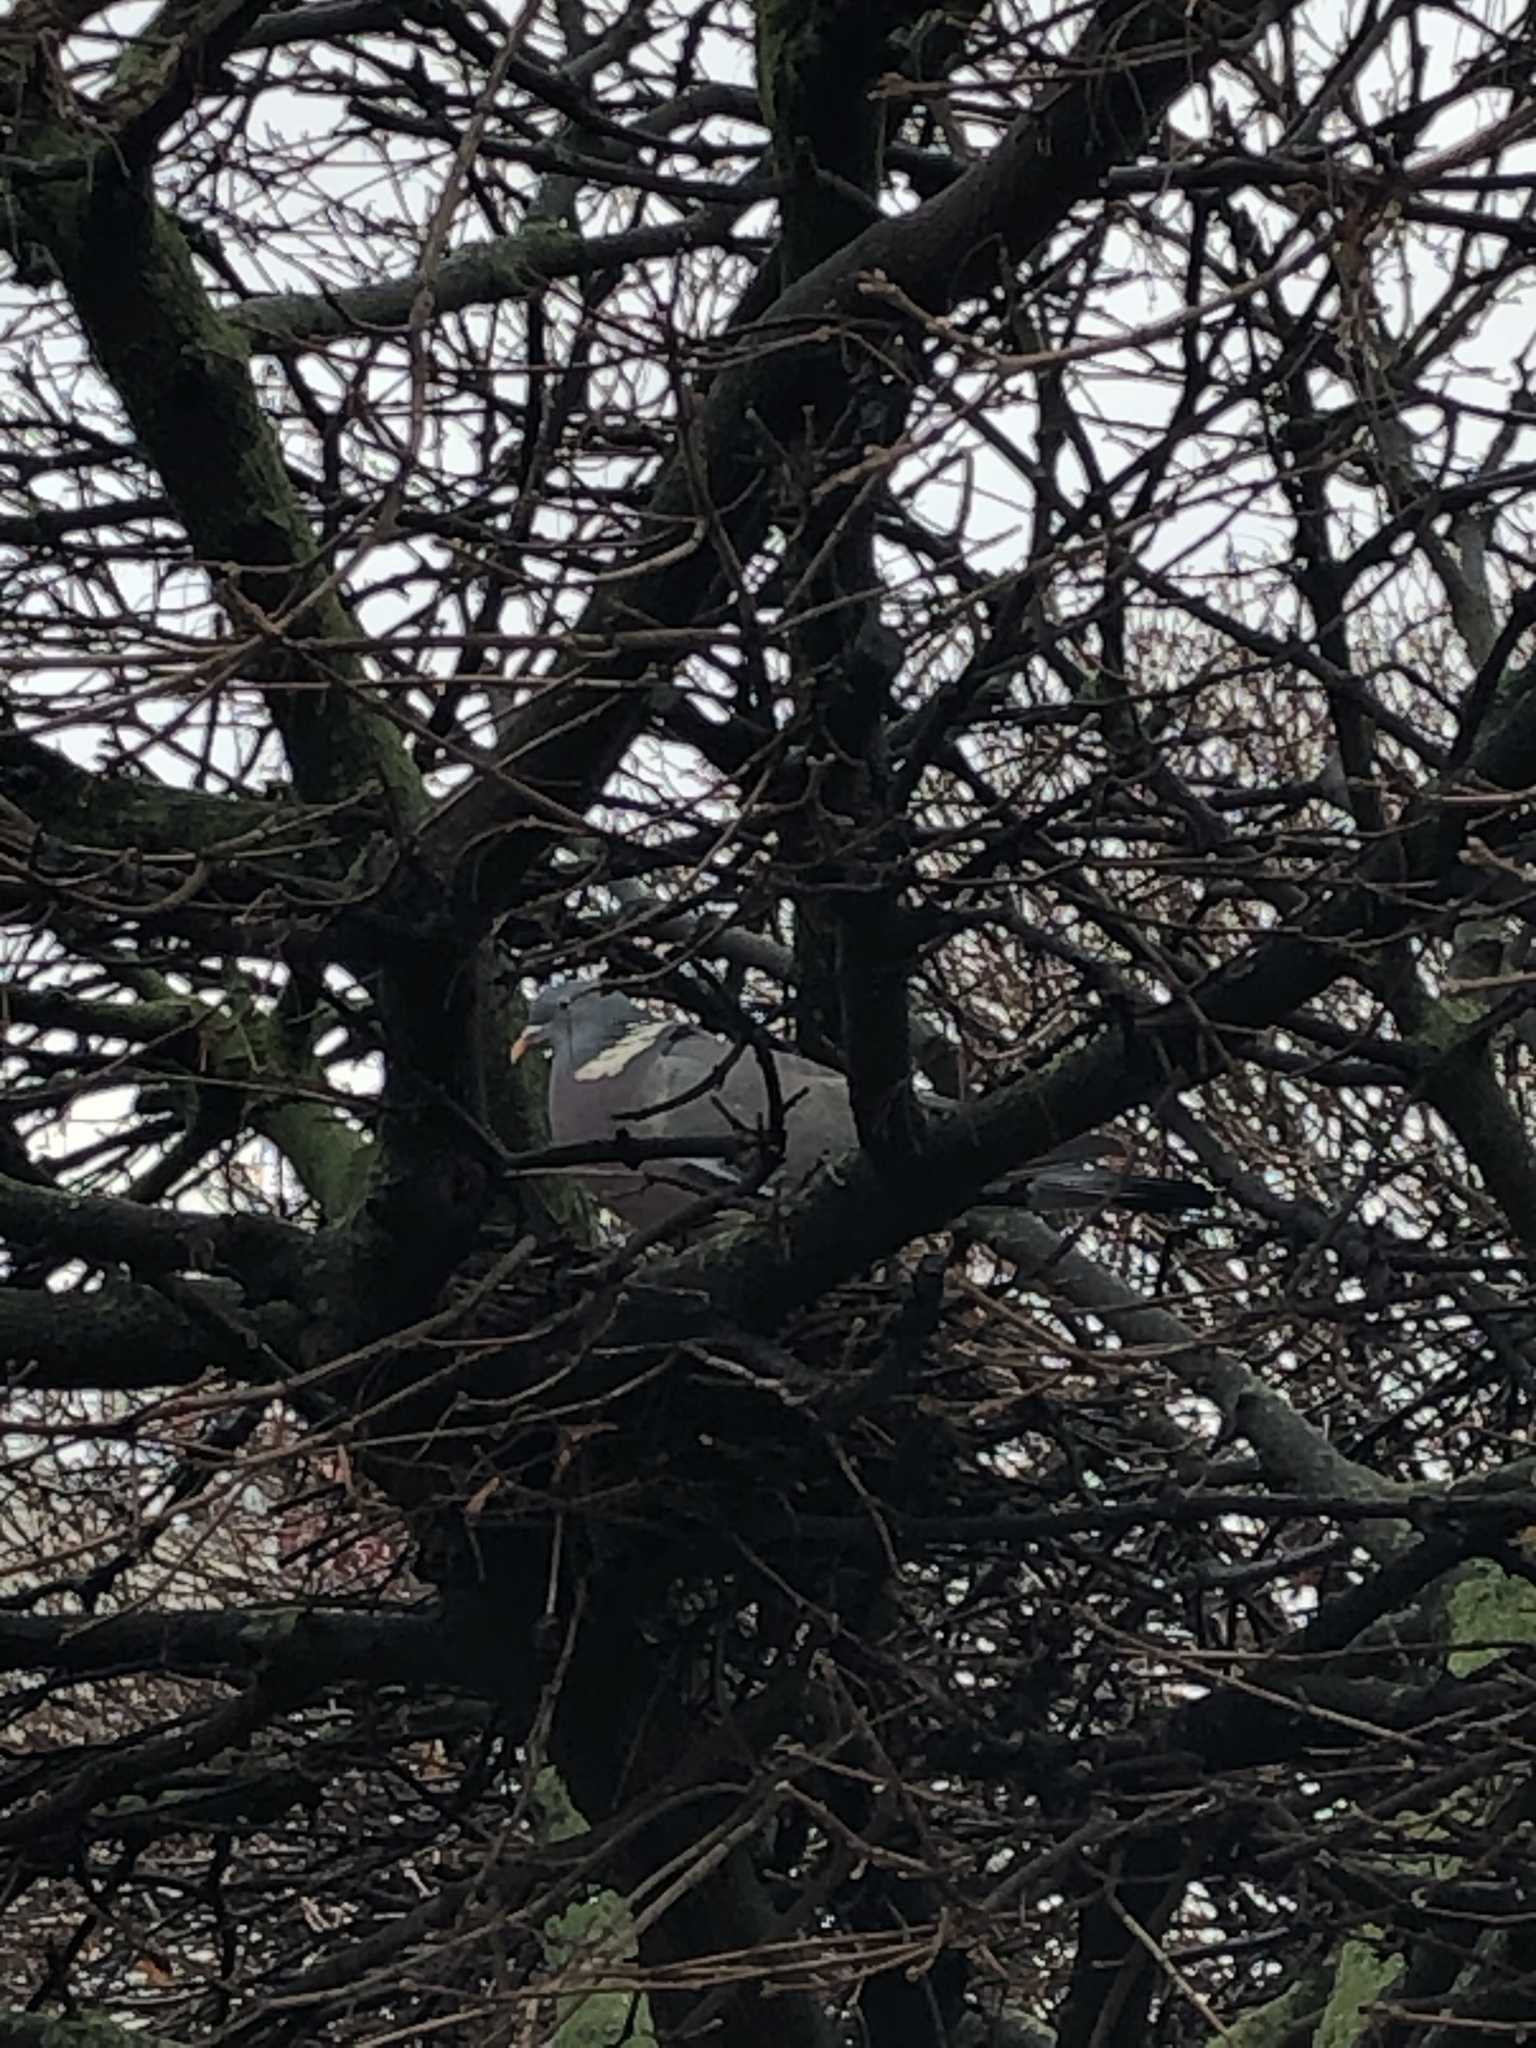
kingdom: Animalia
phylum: Chordata
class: Aves
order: Columbiformes
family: Columbidae
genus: Columba
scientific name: Columba palumbus
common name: Common wood pigeon
